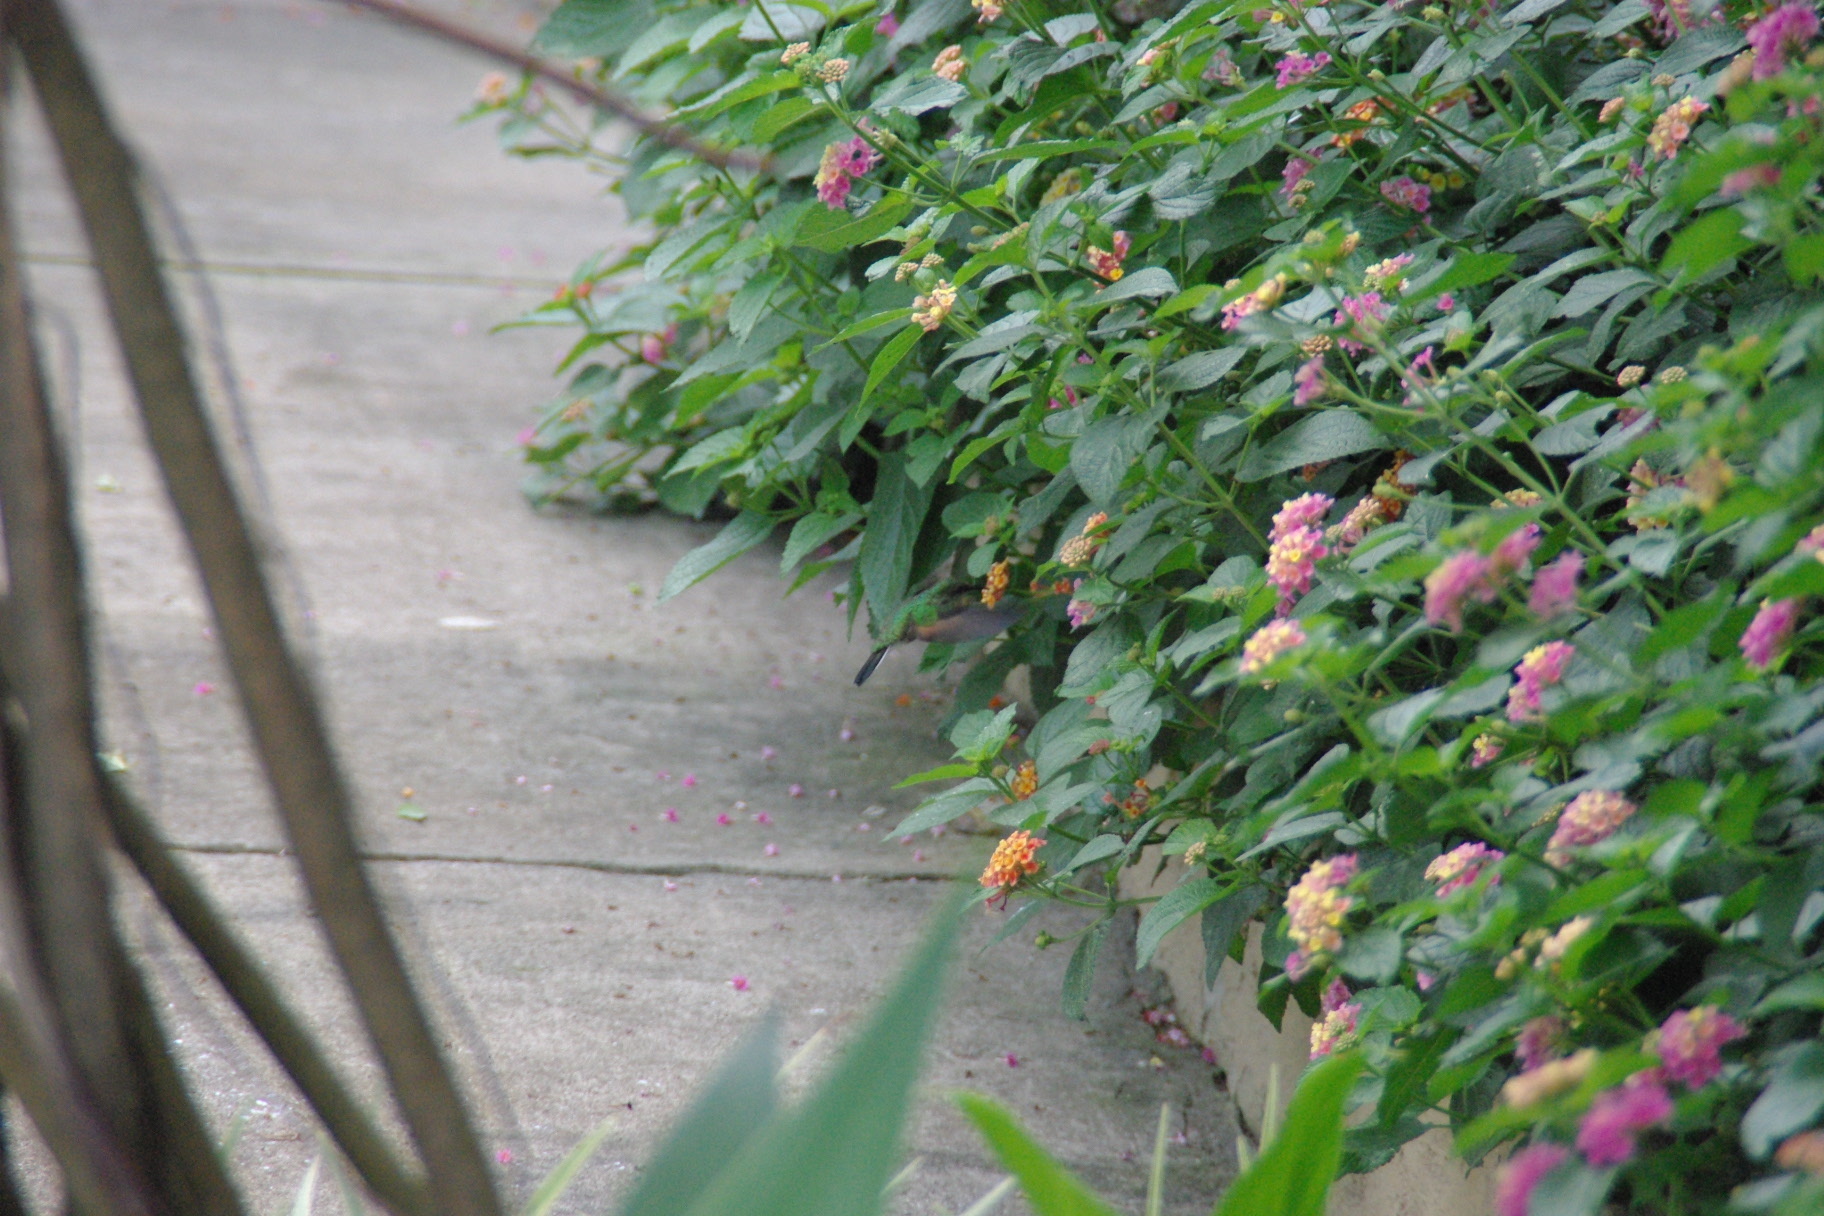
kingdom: Animalia
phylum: Chordata
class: Aves
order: Apodiformes
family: Trochilidae
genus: Eupherusa
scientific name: Eupherusa eximia
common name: Stripe-tailed hummingbird
